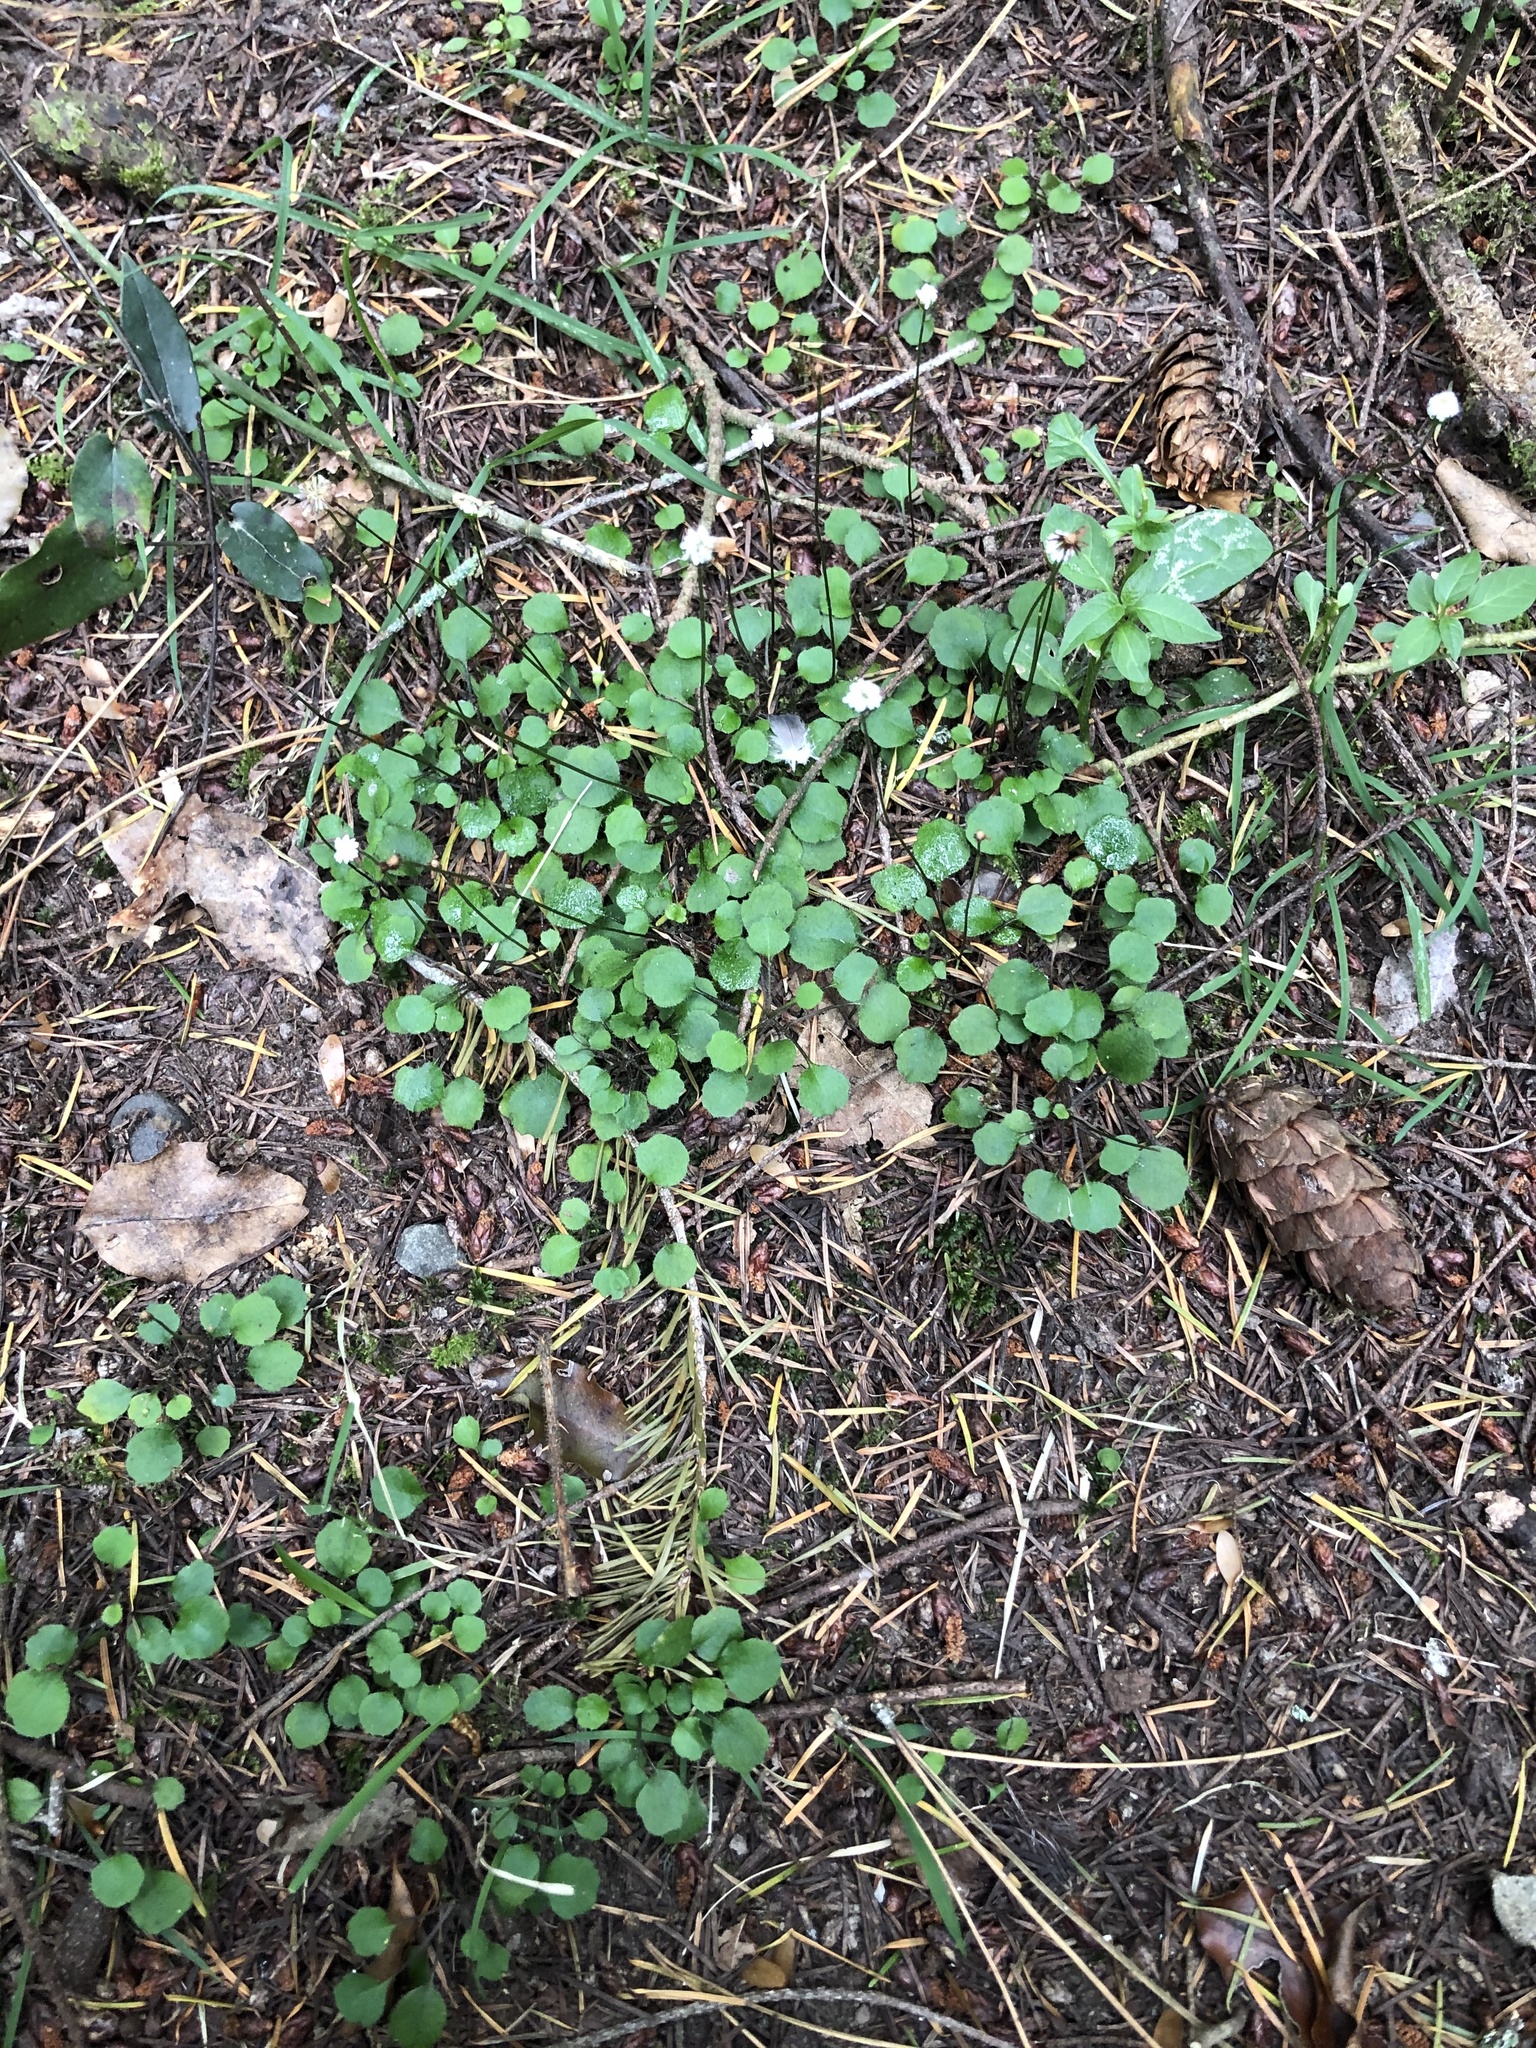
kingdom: Plantae
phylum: Tracheophyta
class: Magnoliopsida
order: Asterales
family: Asteraceae
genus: Lagenophora
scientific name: Lagenophora strangulata
